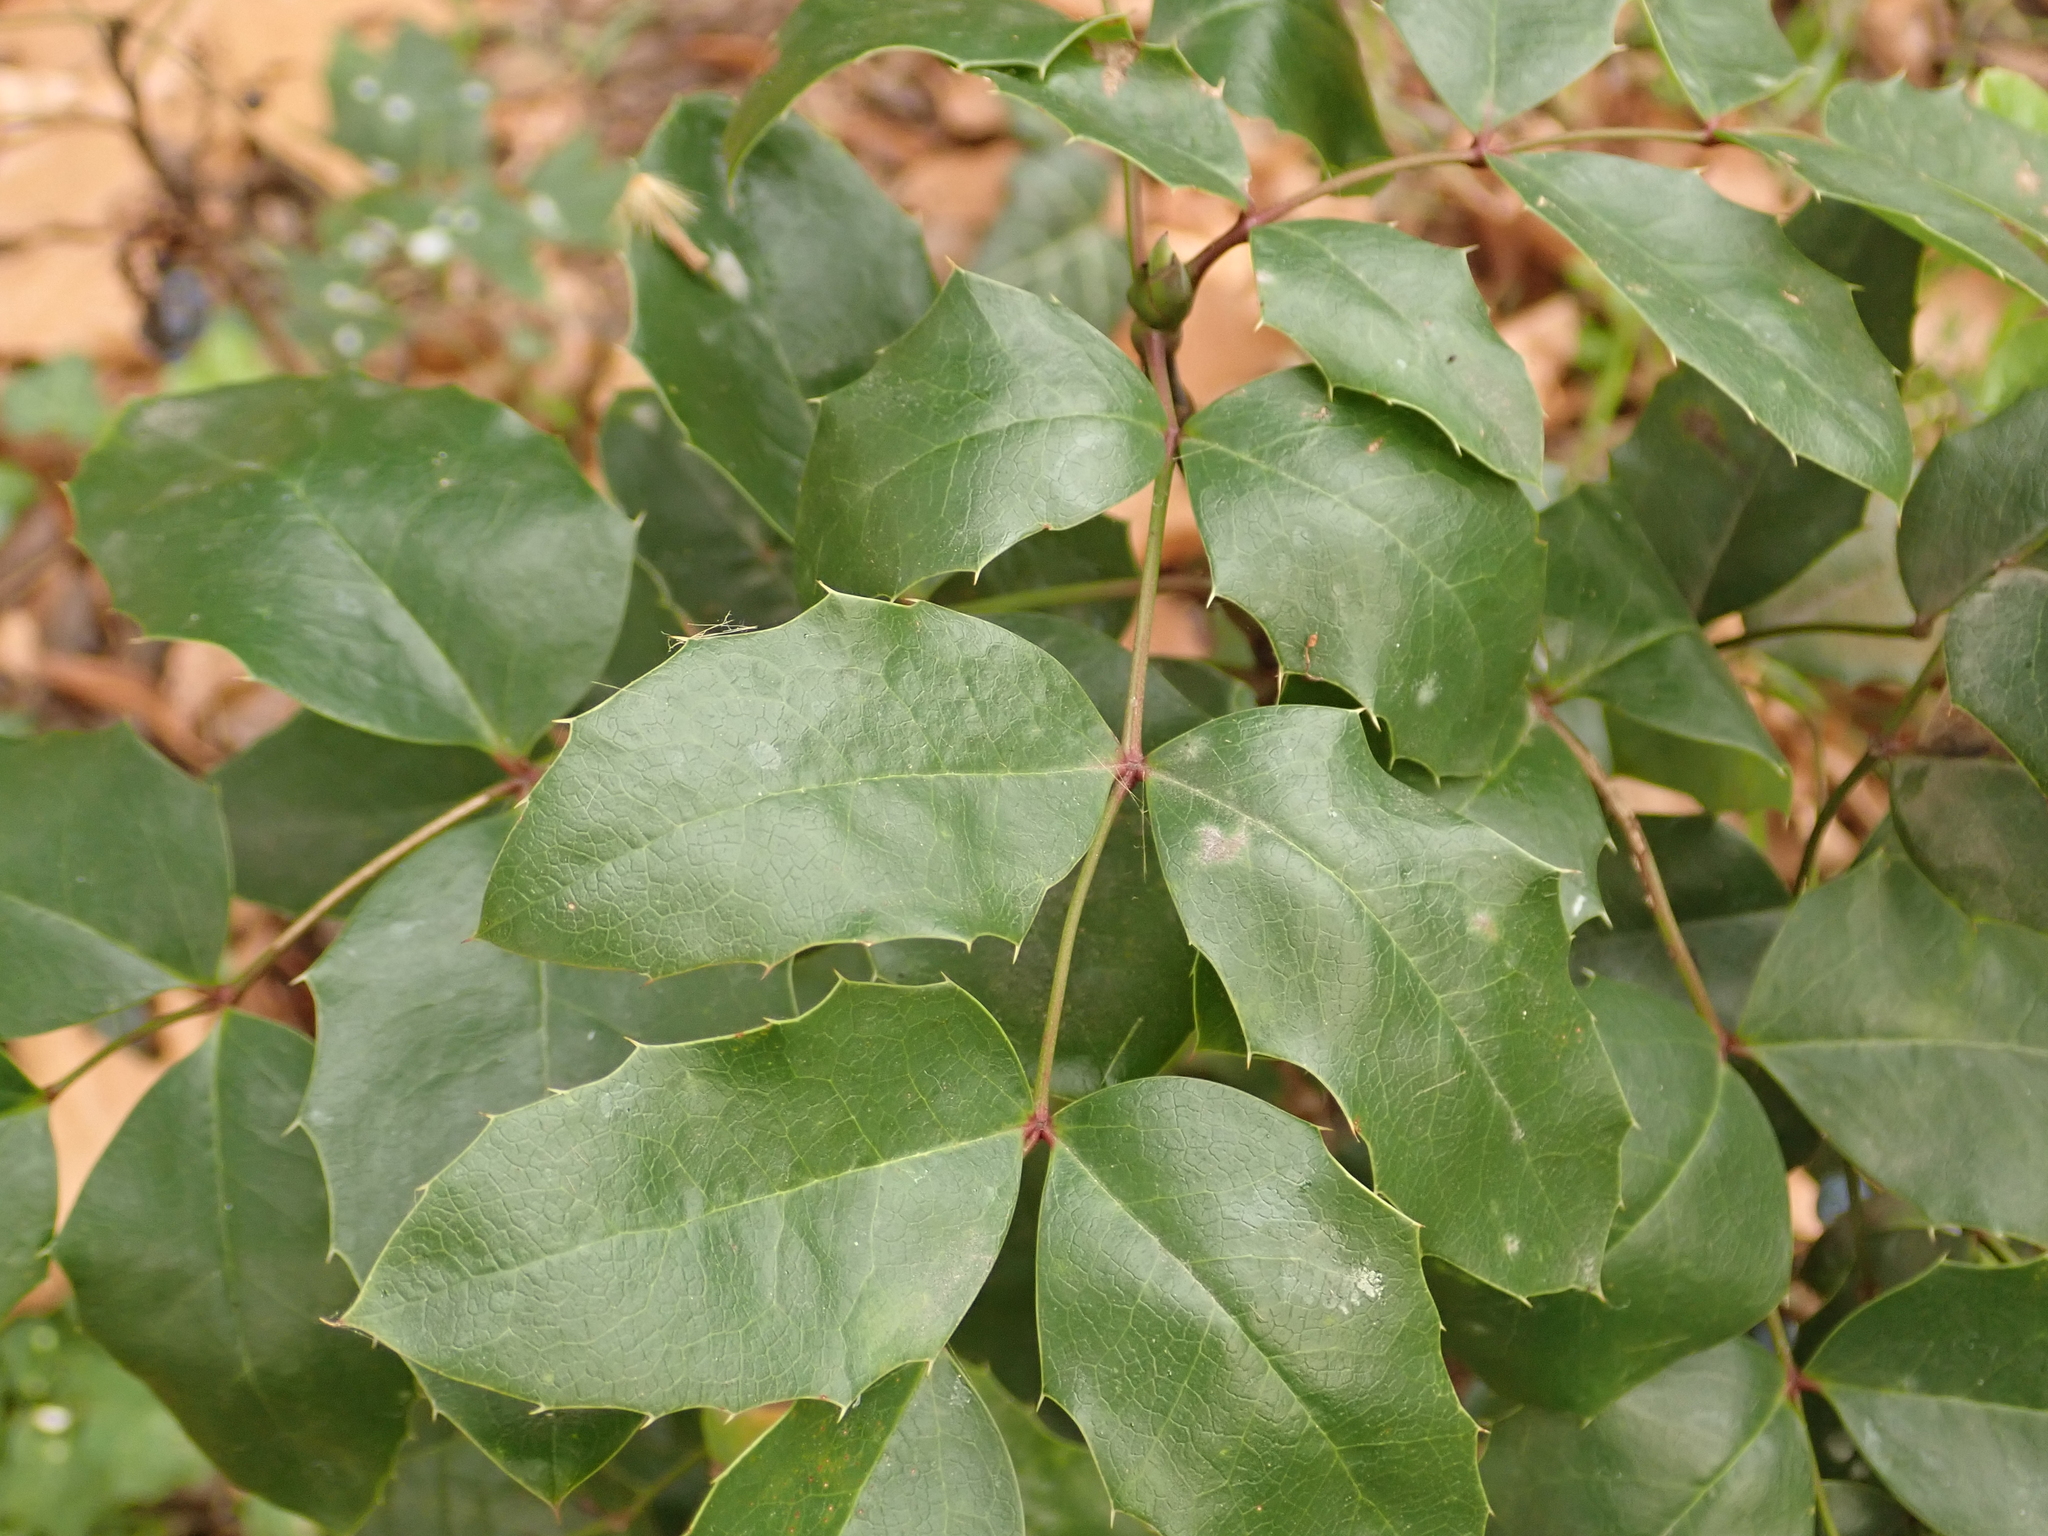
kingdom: Plantae
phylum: Tracheophyta
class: Magnoliopsida
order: Ranunculales
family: Berberidaceae
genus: Mahonia
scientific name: Mahonia aquifolium
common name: Oregon-grape
